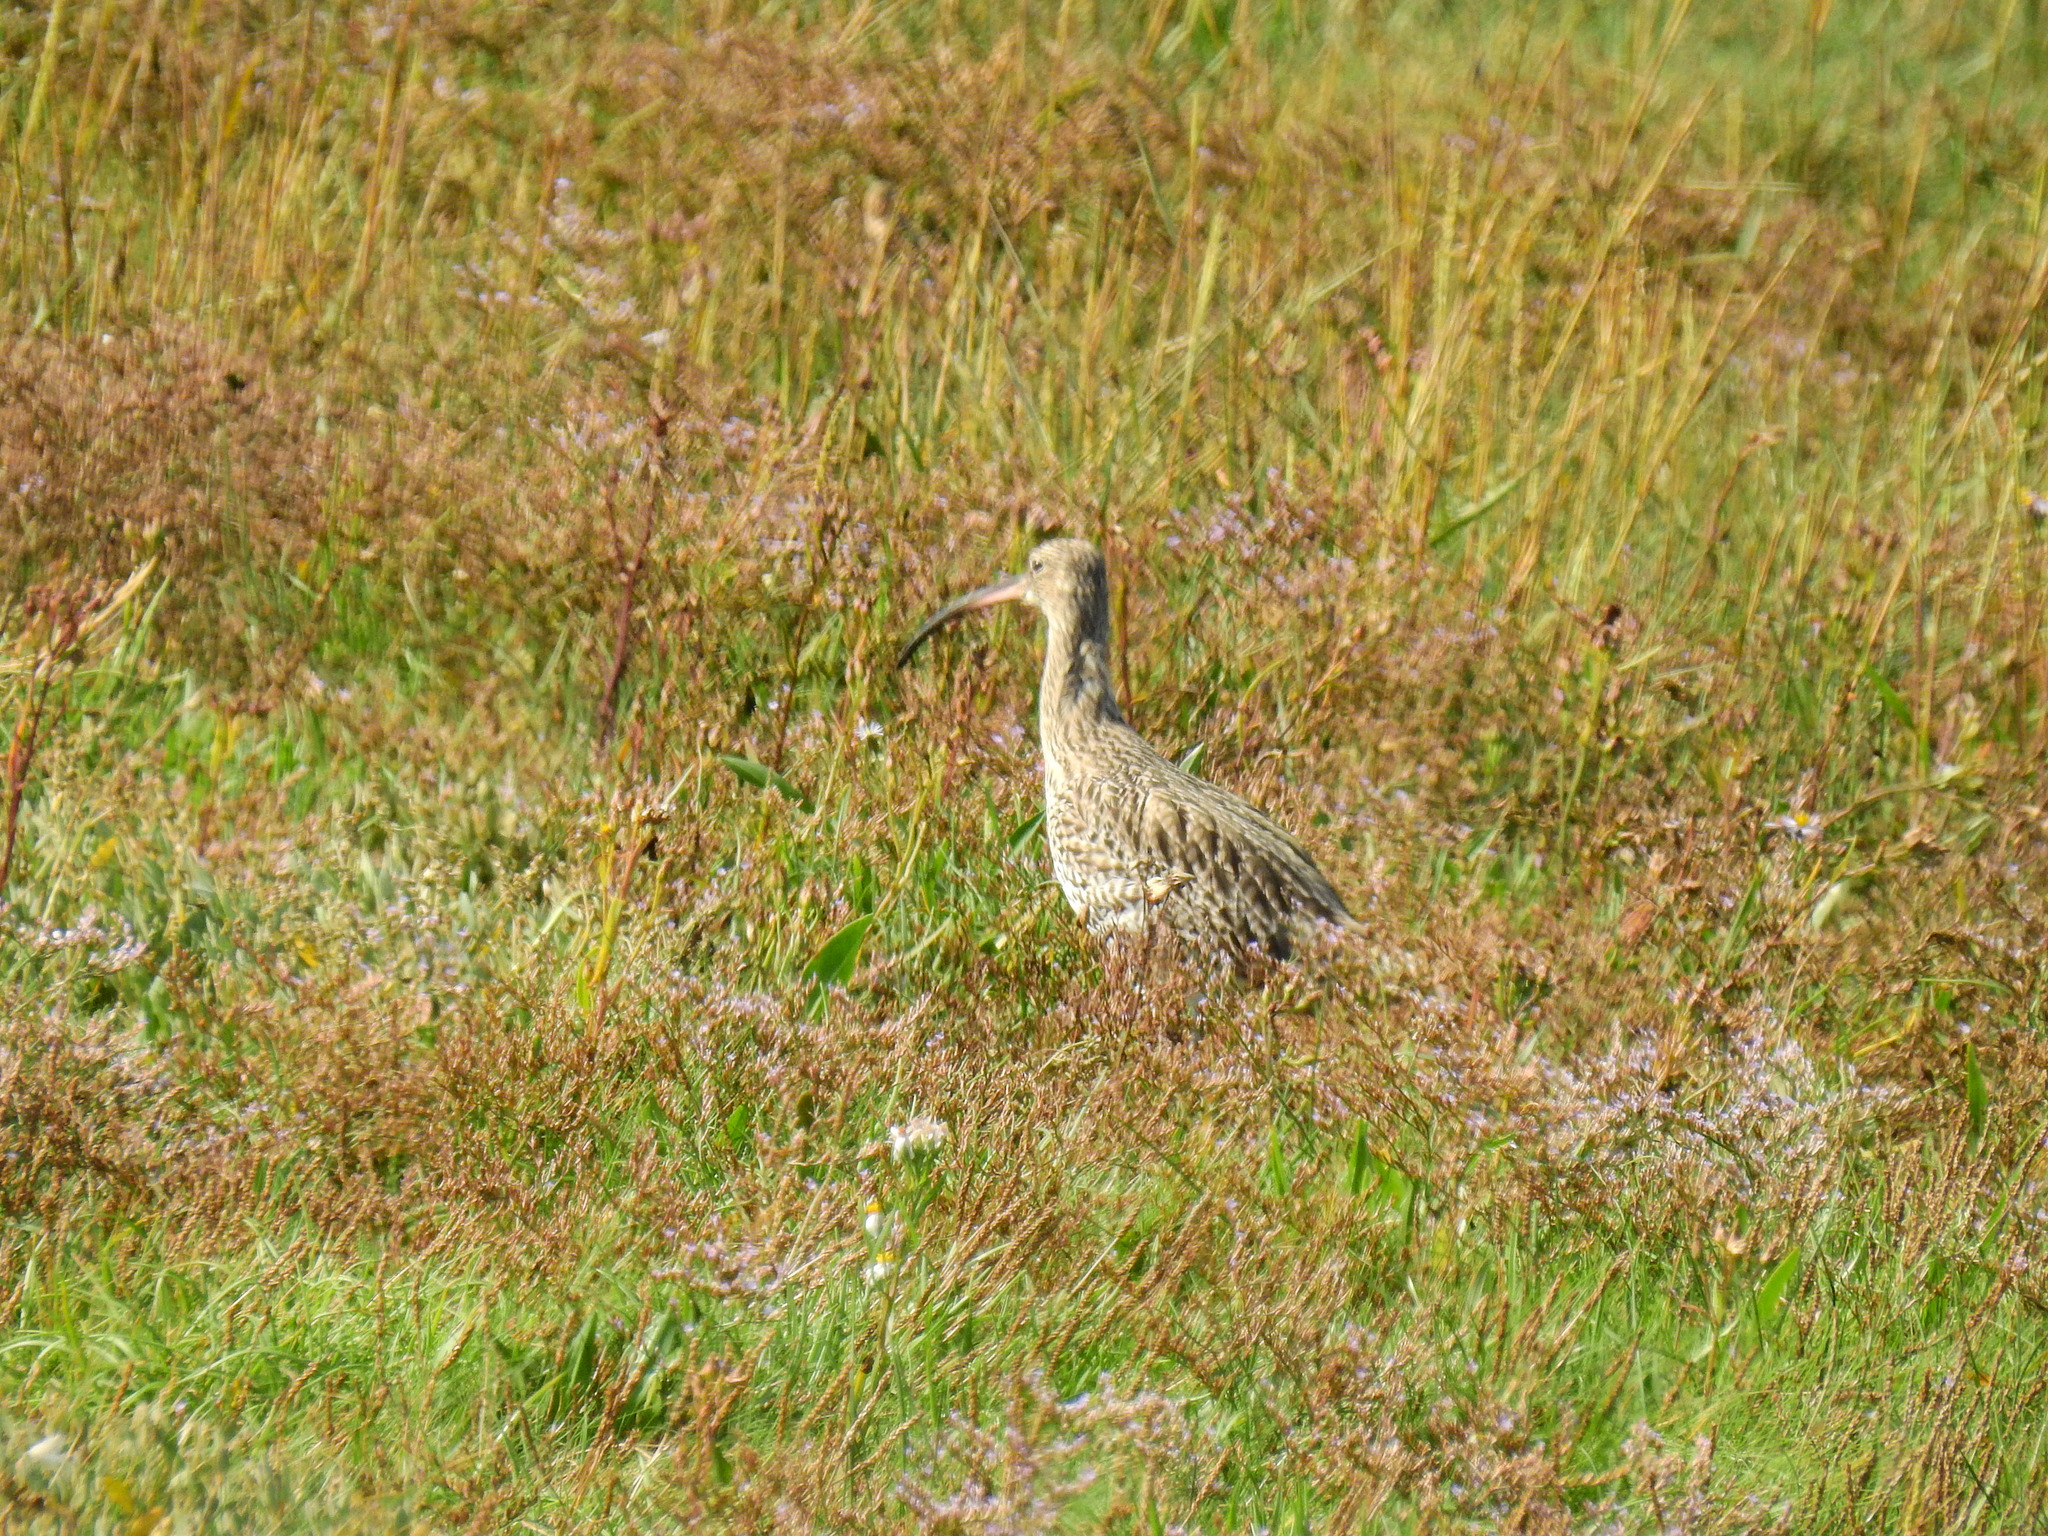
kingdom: Animalia
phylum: Chordata
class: Aves
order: Charadriiformes
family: Scolopacidae
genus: Numenius
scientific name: Numenius arquata
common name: Eurasian curlew
